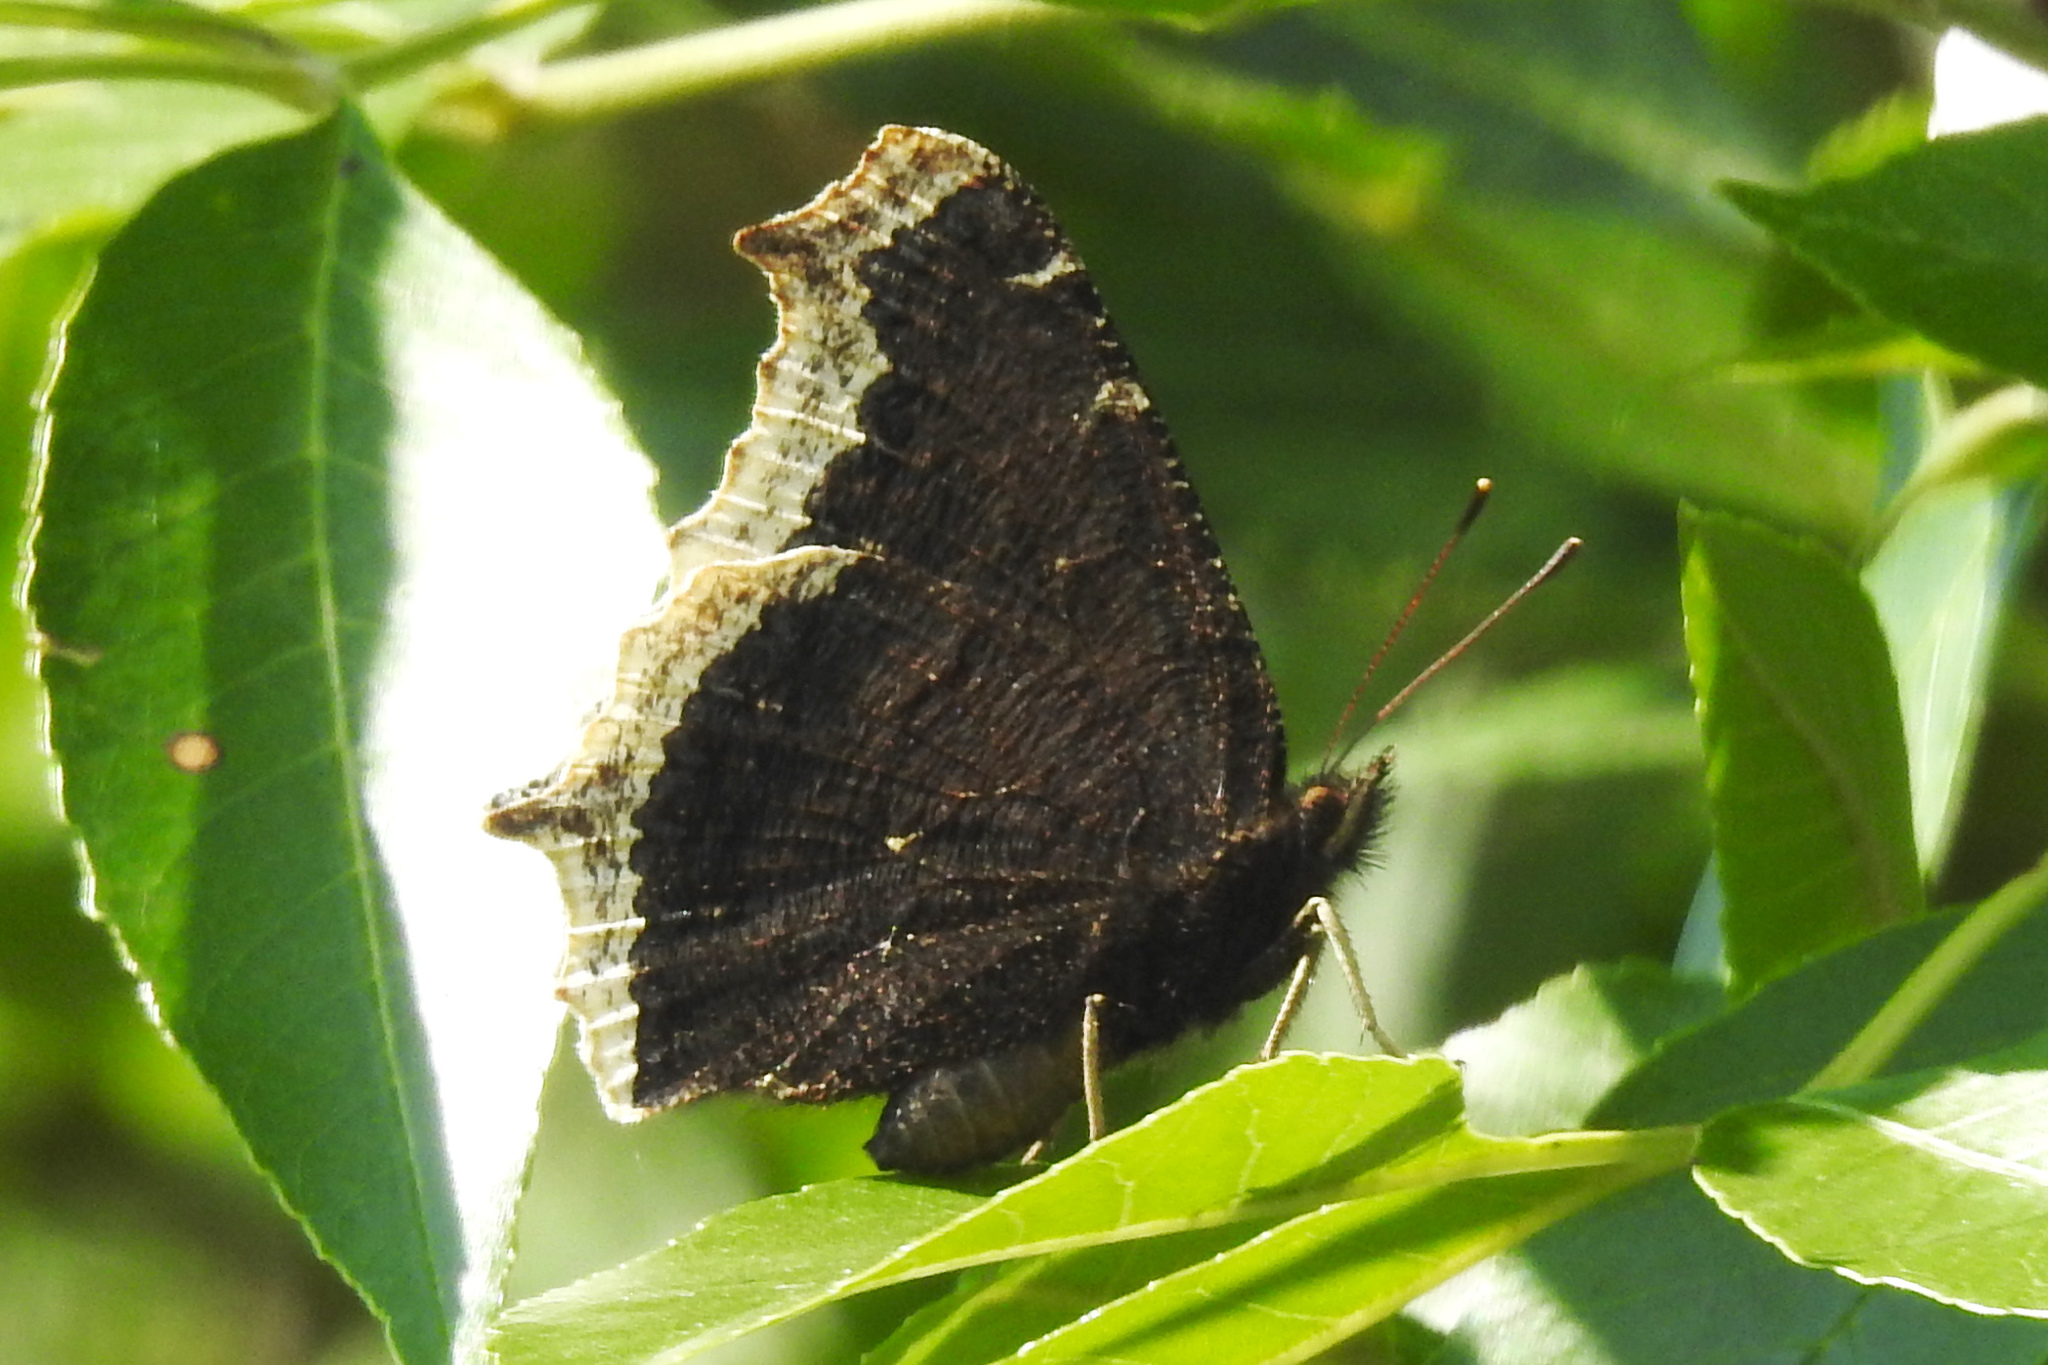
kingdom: Animalia
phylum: Arthropoda
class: Insecta
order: Lepidoptera
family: Nymphalidae
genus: Nymphalis
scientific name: Nymphalis antiopa
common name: Camberwell beauty
